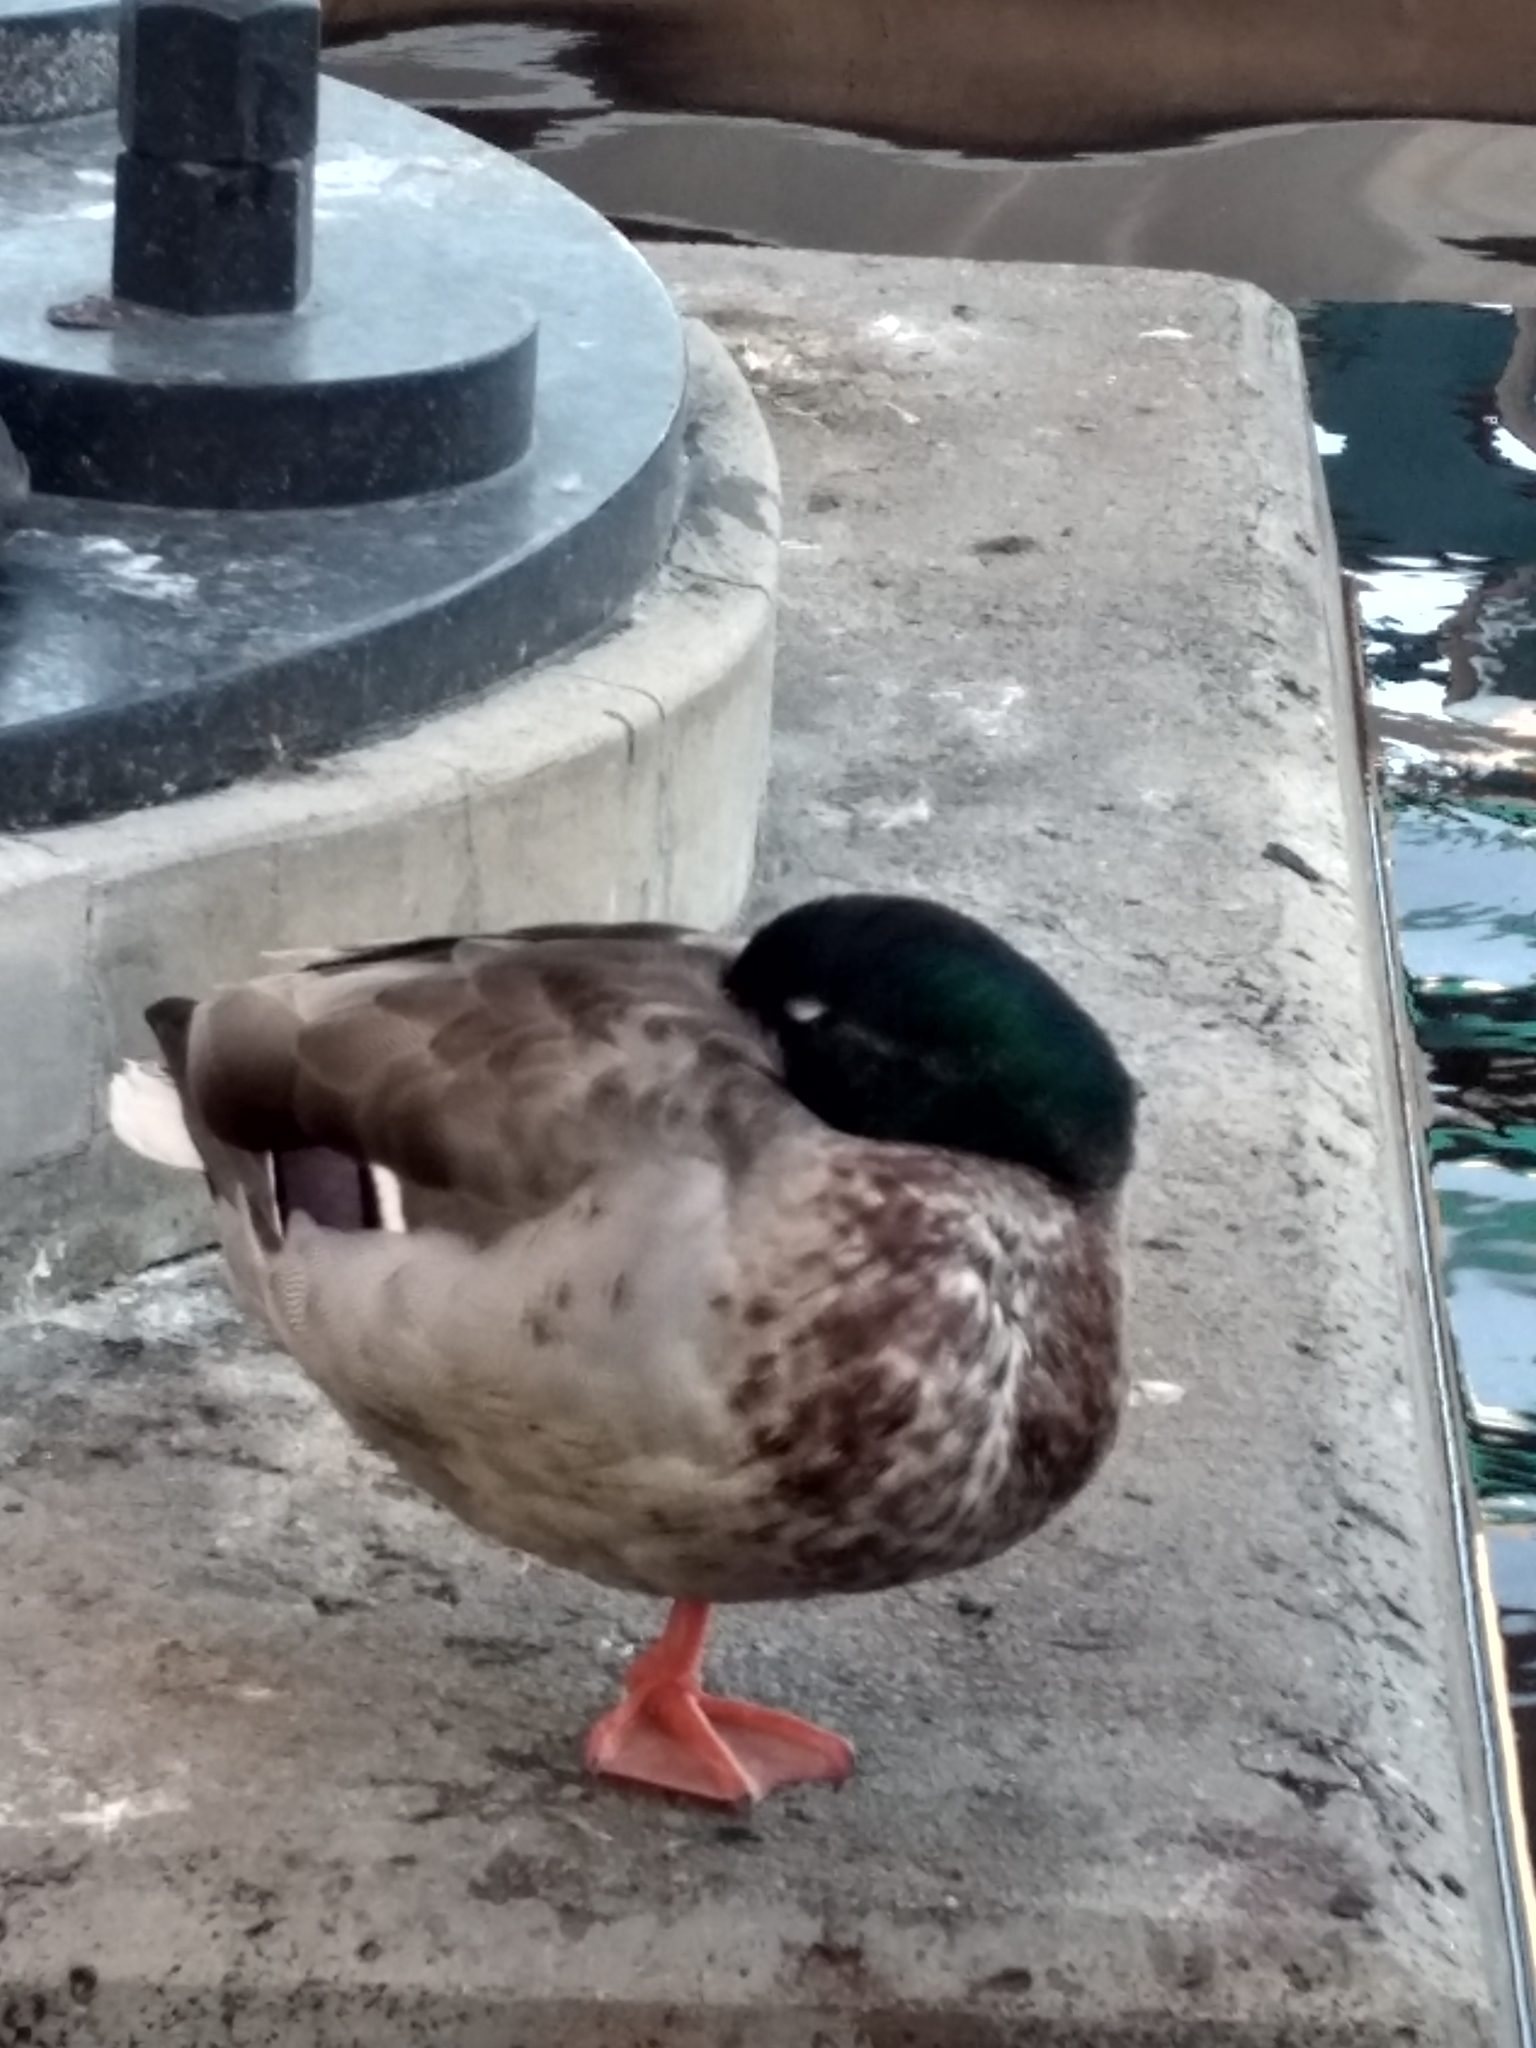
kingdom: Animalia
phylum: Chordata
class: Aves
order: Anseriformes
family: Anatidae
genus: Anas
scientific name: Anas platyrhynchos
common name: Mallard
